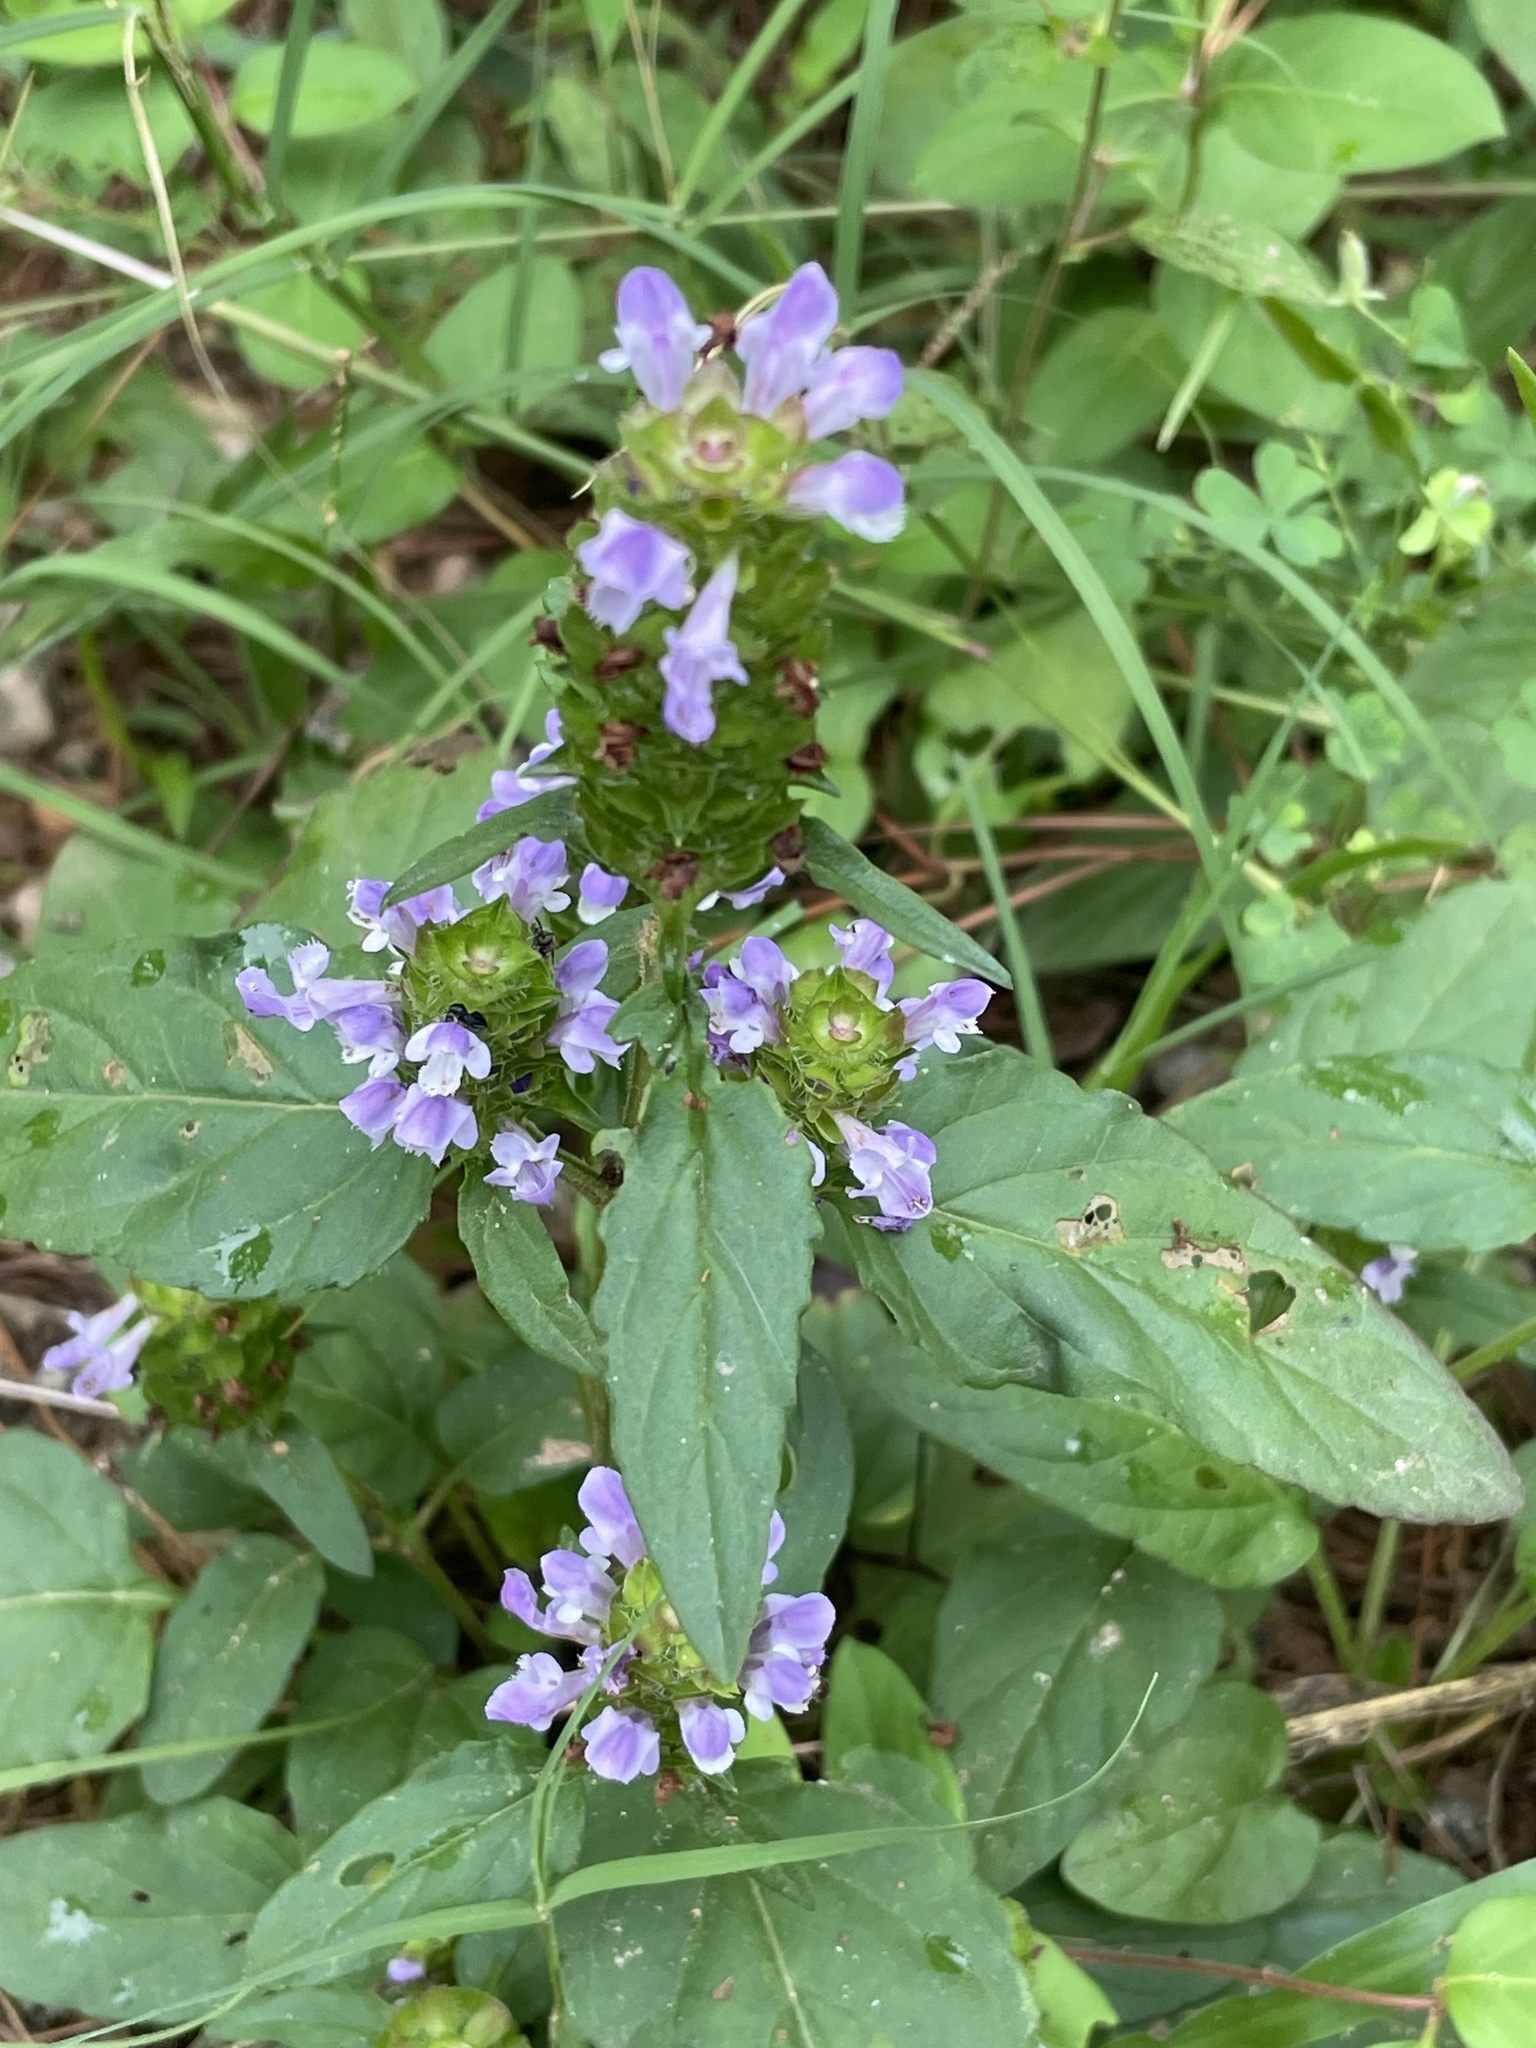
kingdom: Plantae
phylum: Tracheophyta
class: Magnoliopsida
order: Lamiales
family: Lamiaceae
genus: Prunella
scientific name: Prunella vulgaris
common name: Heal-all
